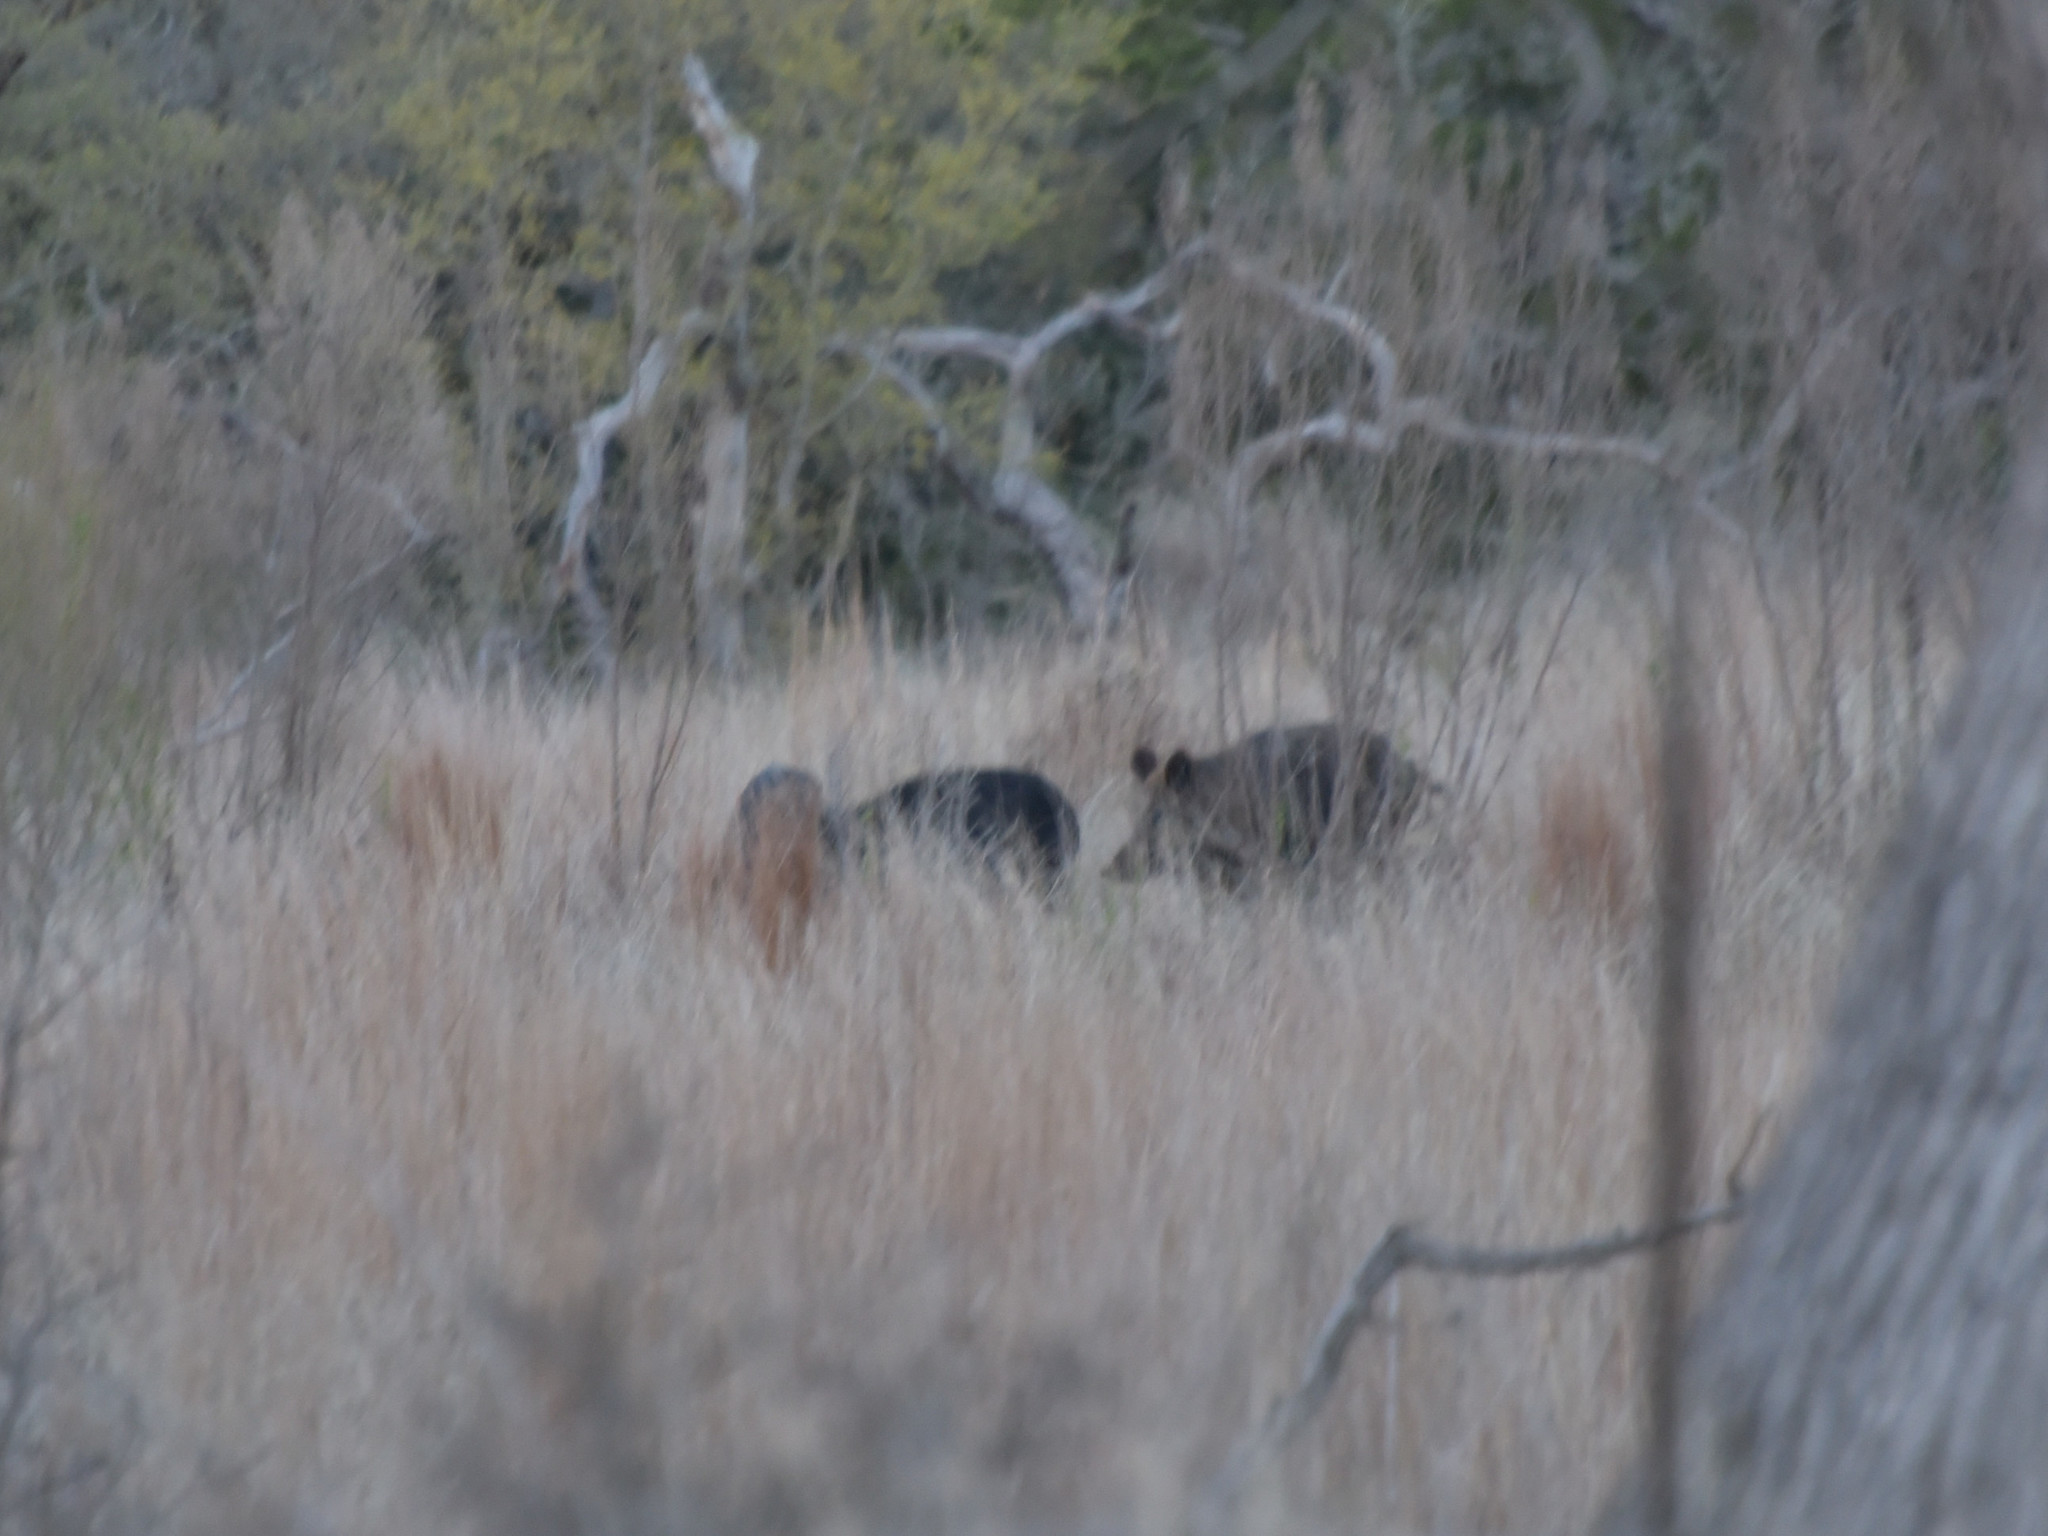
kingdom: Animalia
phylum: Chordata
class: Mammalia
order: Artiodactyla
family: Suidae
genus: Sus
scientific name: Sus scrofa
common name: Wild boar
